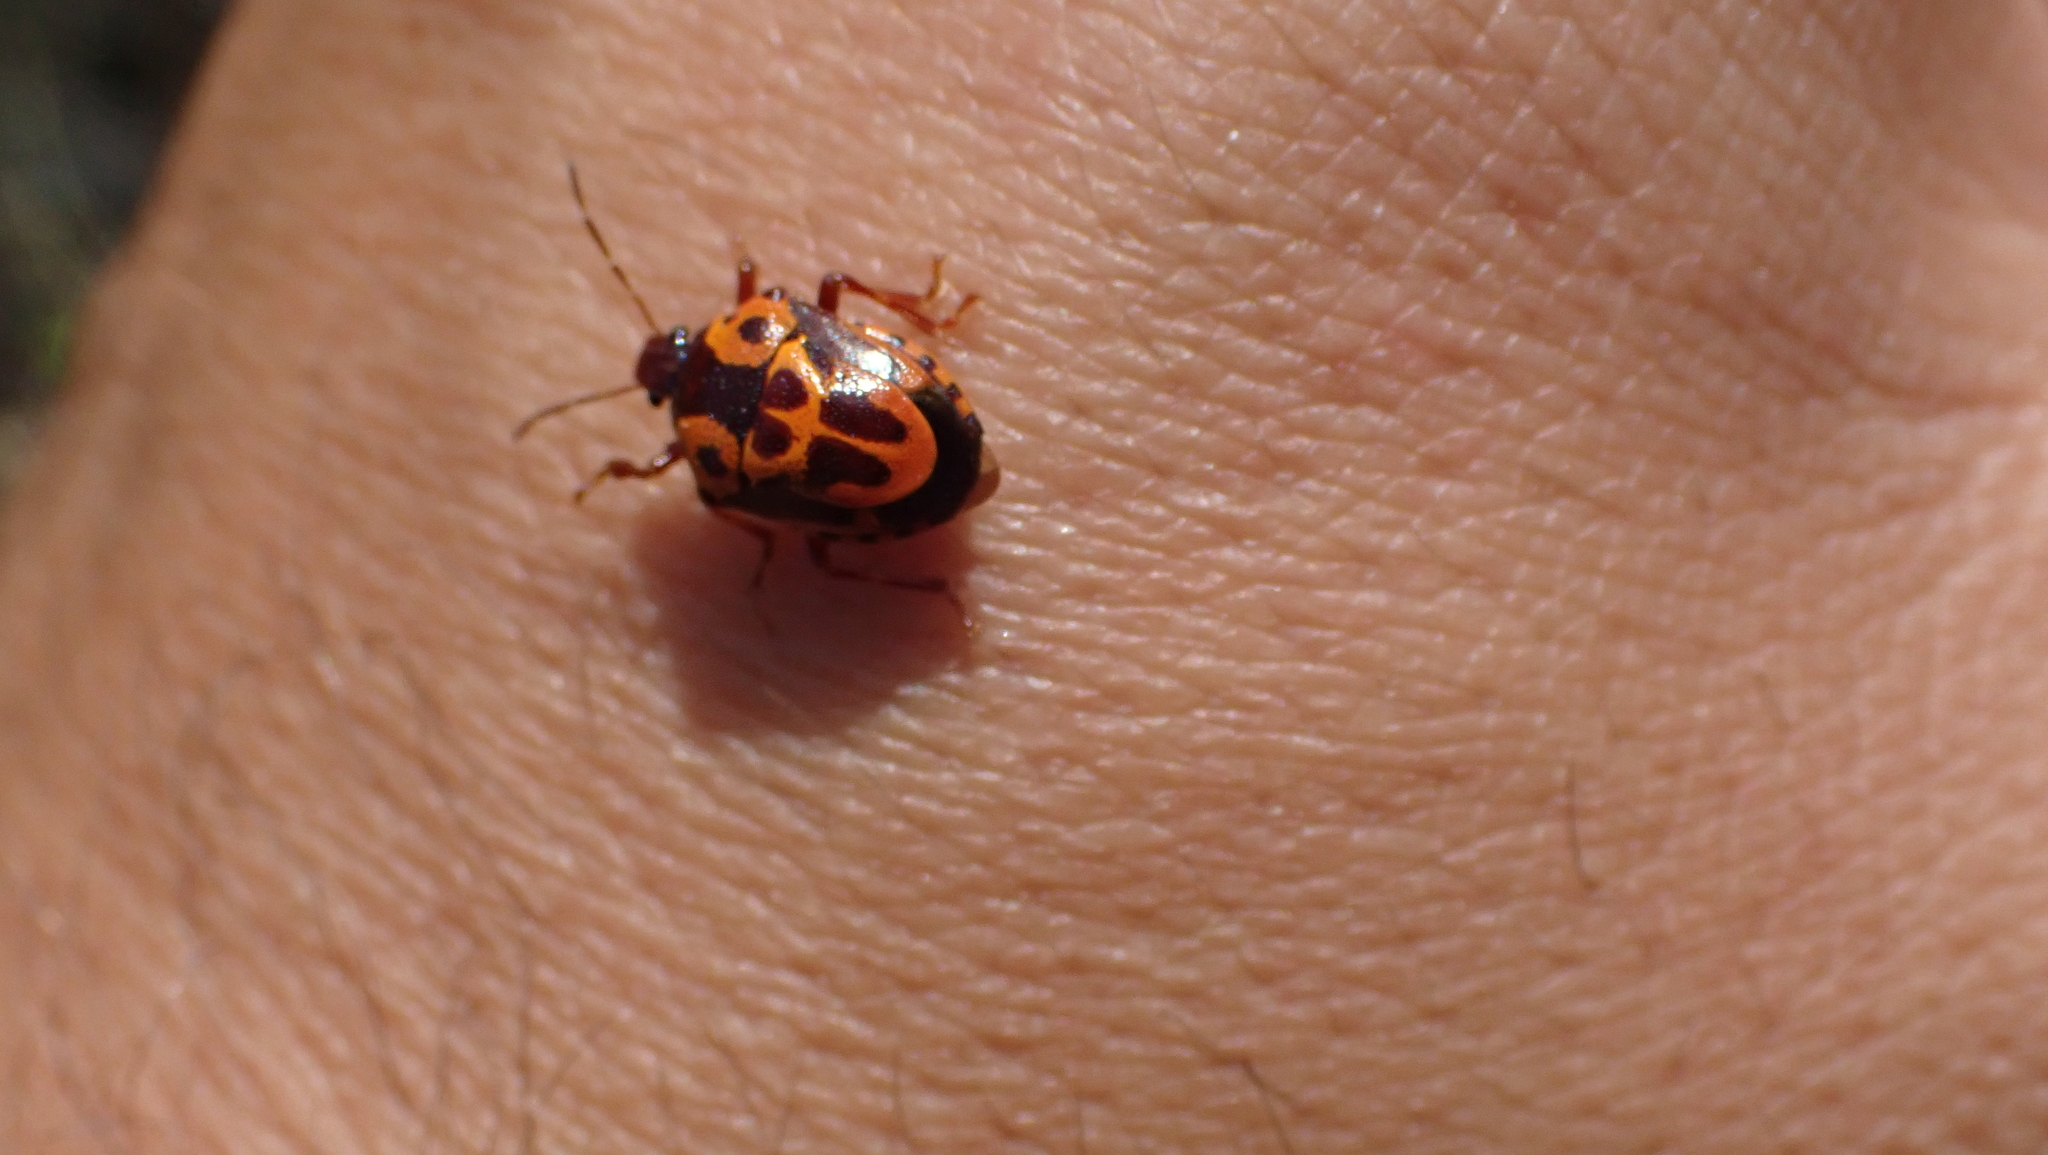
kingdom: Animalia
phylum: Arthropoda
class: Insecta
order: Hemiptera
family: Pentatomidae
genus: Stiretrus
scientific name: Stiretrus anchorago
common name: Anchor stink bug
